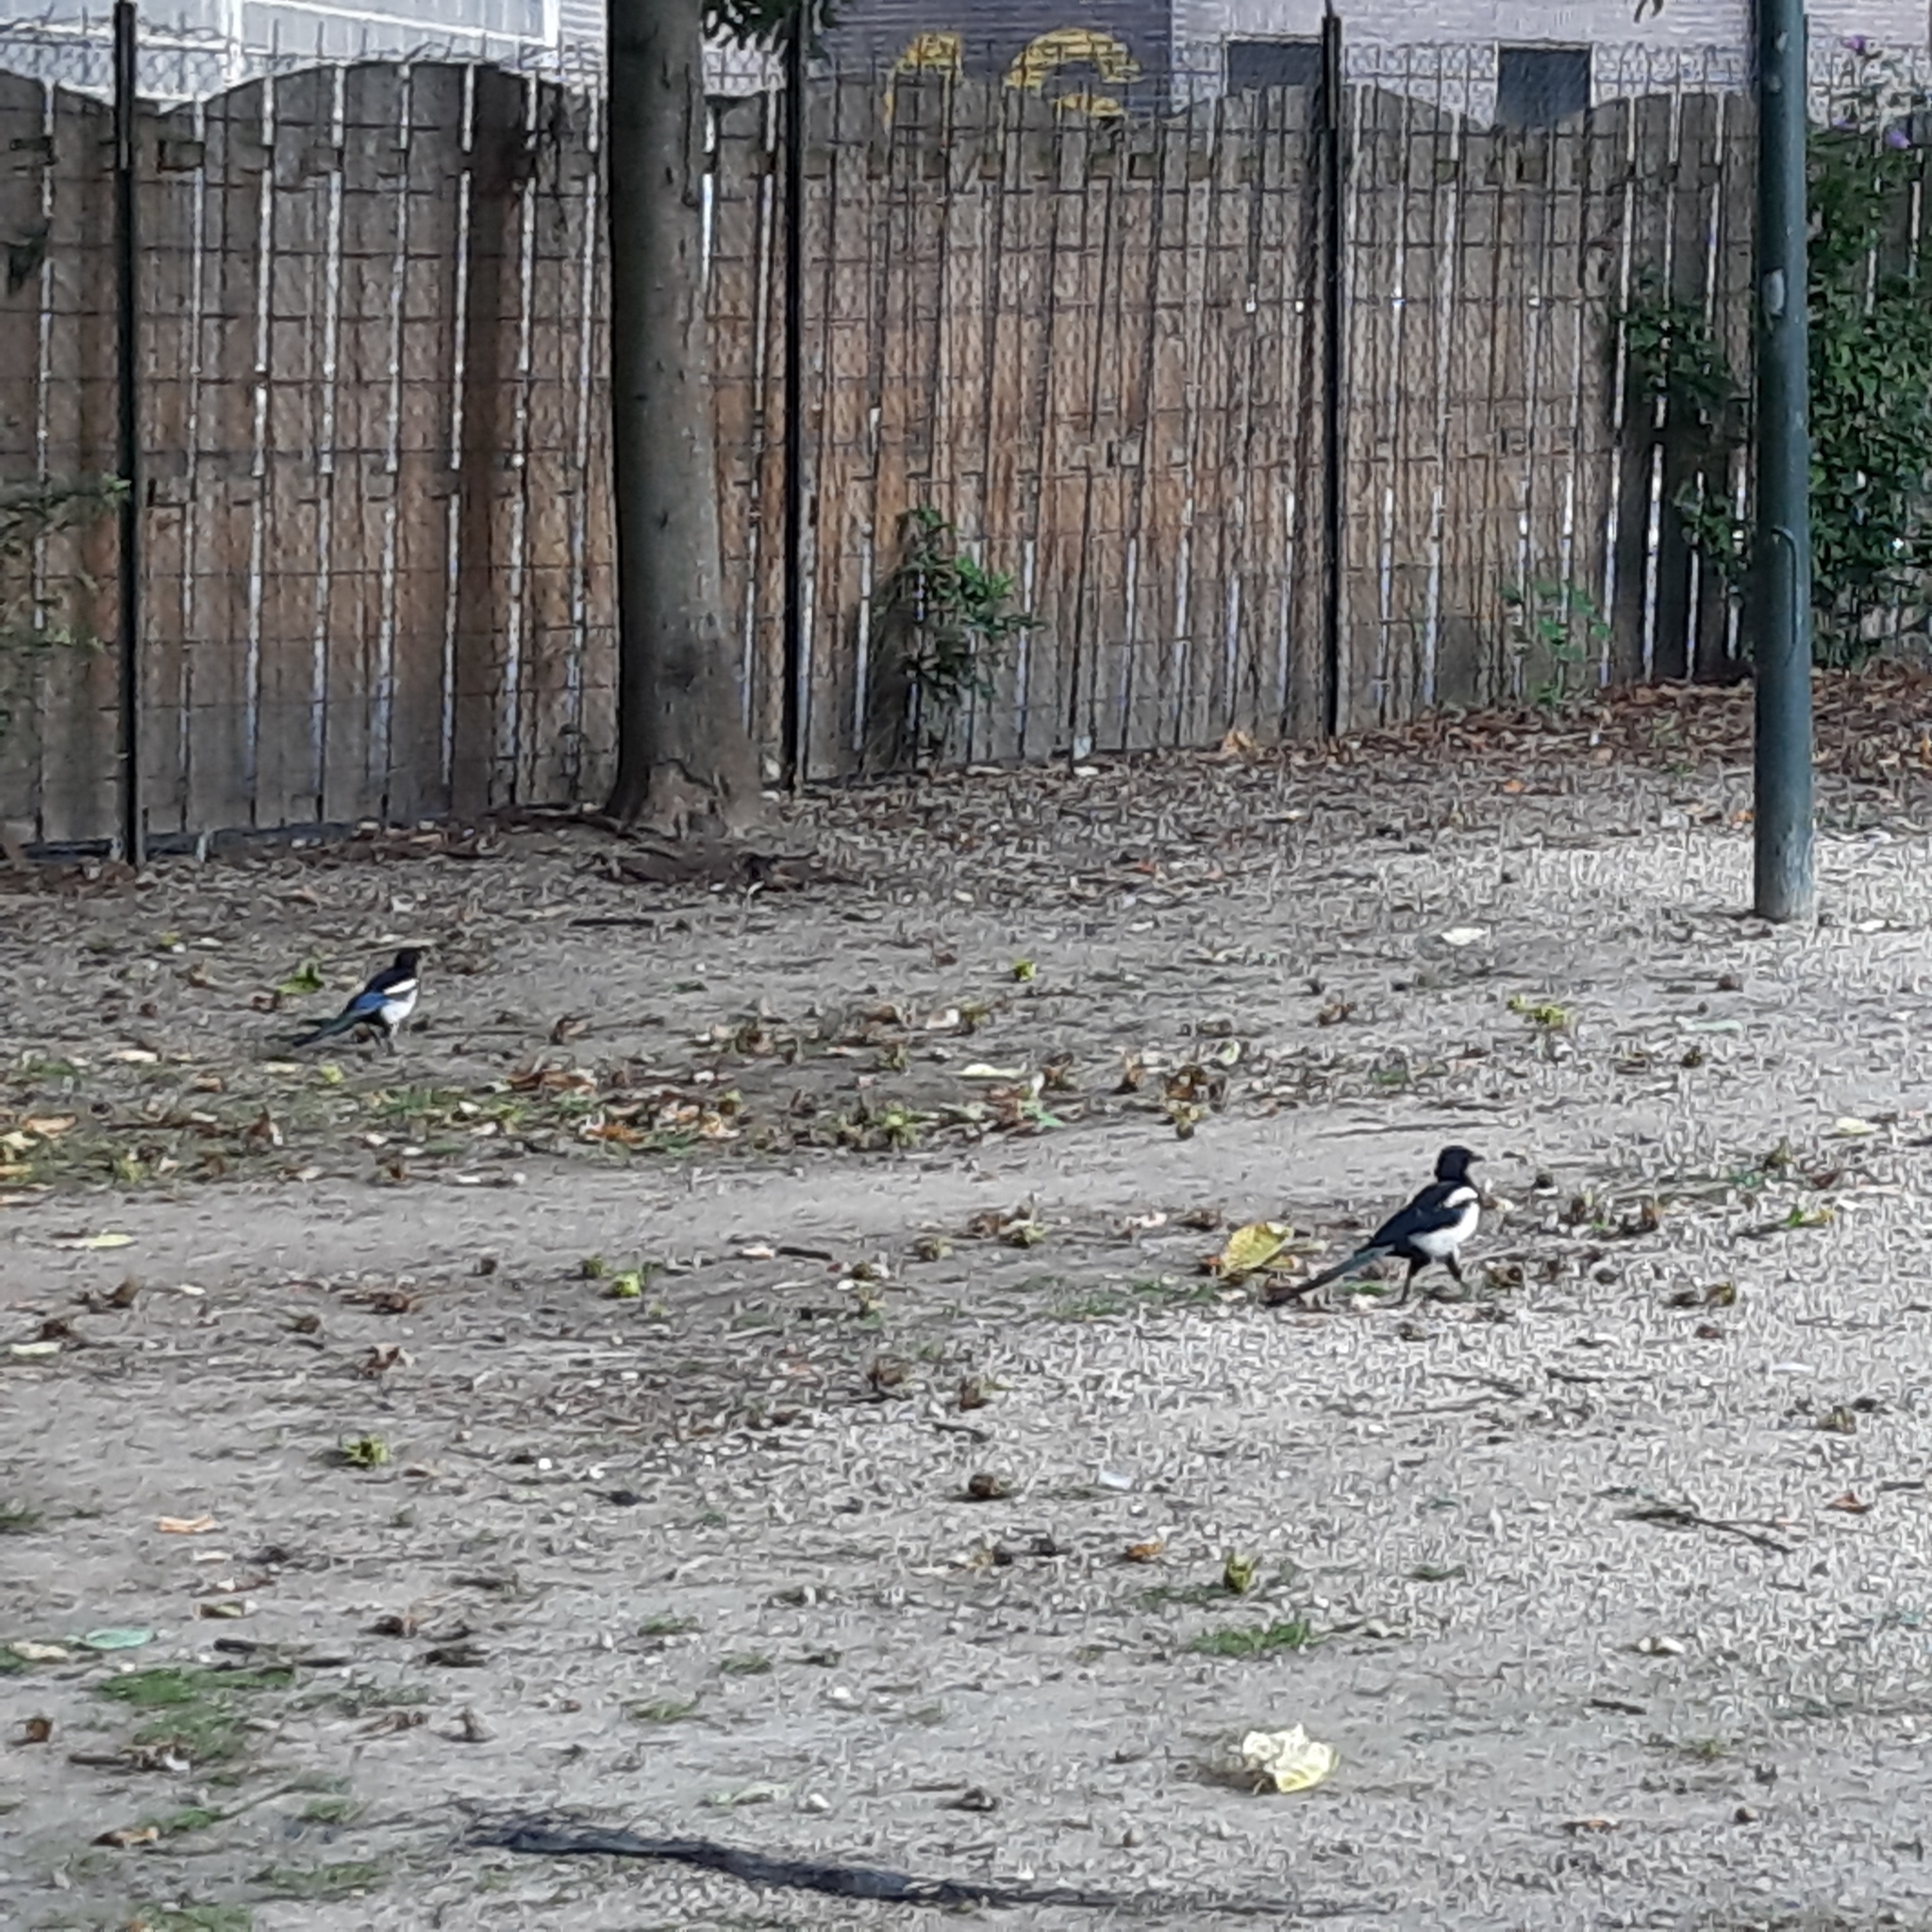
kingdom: Animalia
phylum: Chordata
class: Aves
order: Passeriformes
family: Corvidae
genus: Pica
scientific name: Pica pica
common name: Eurasian magpie
